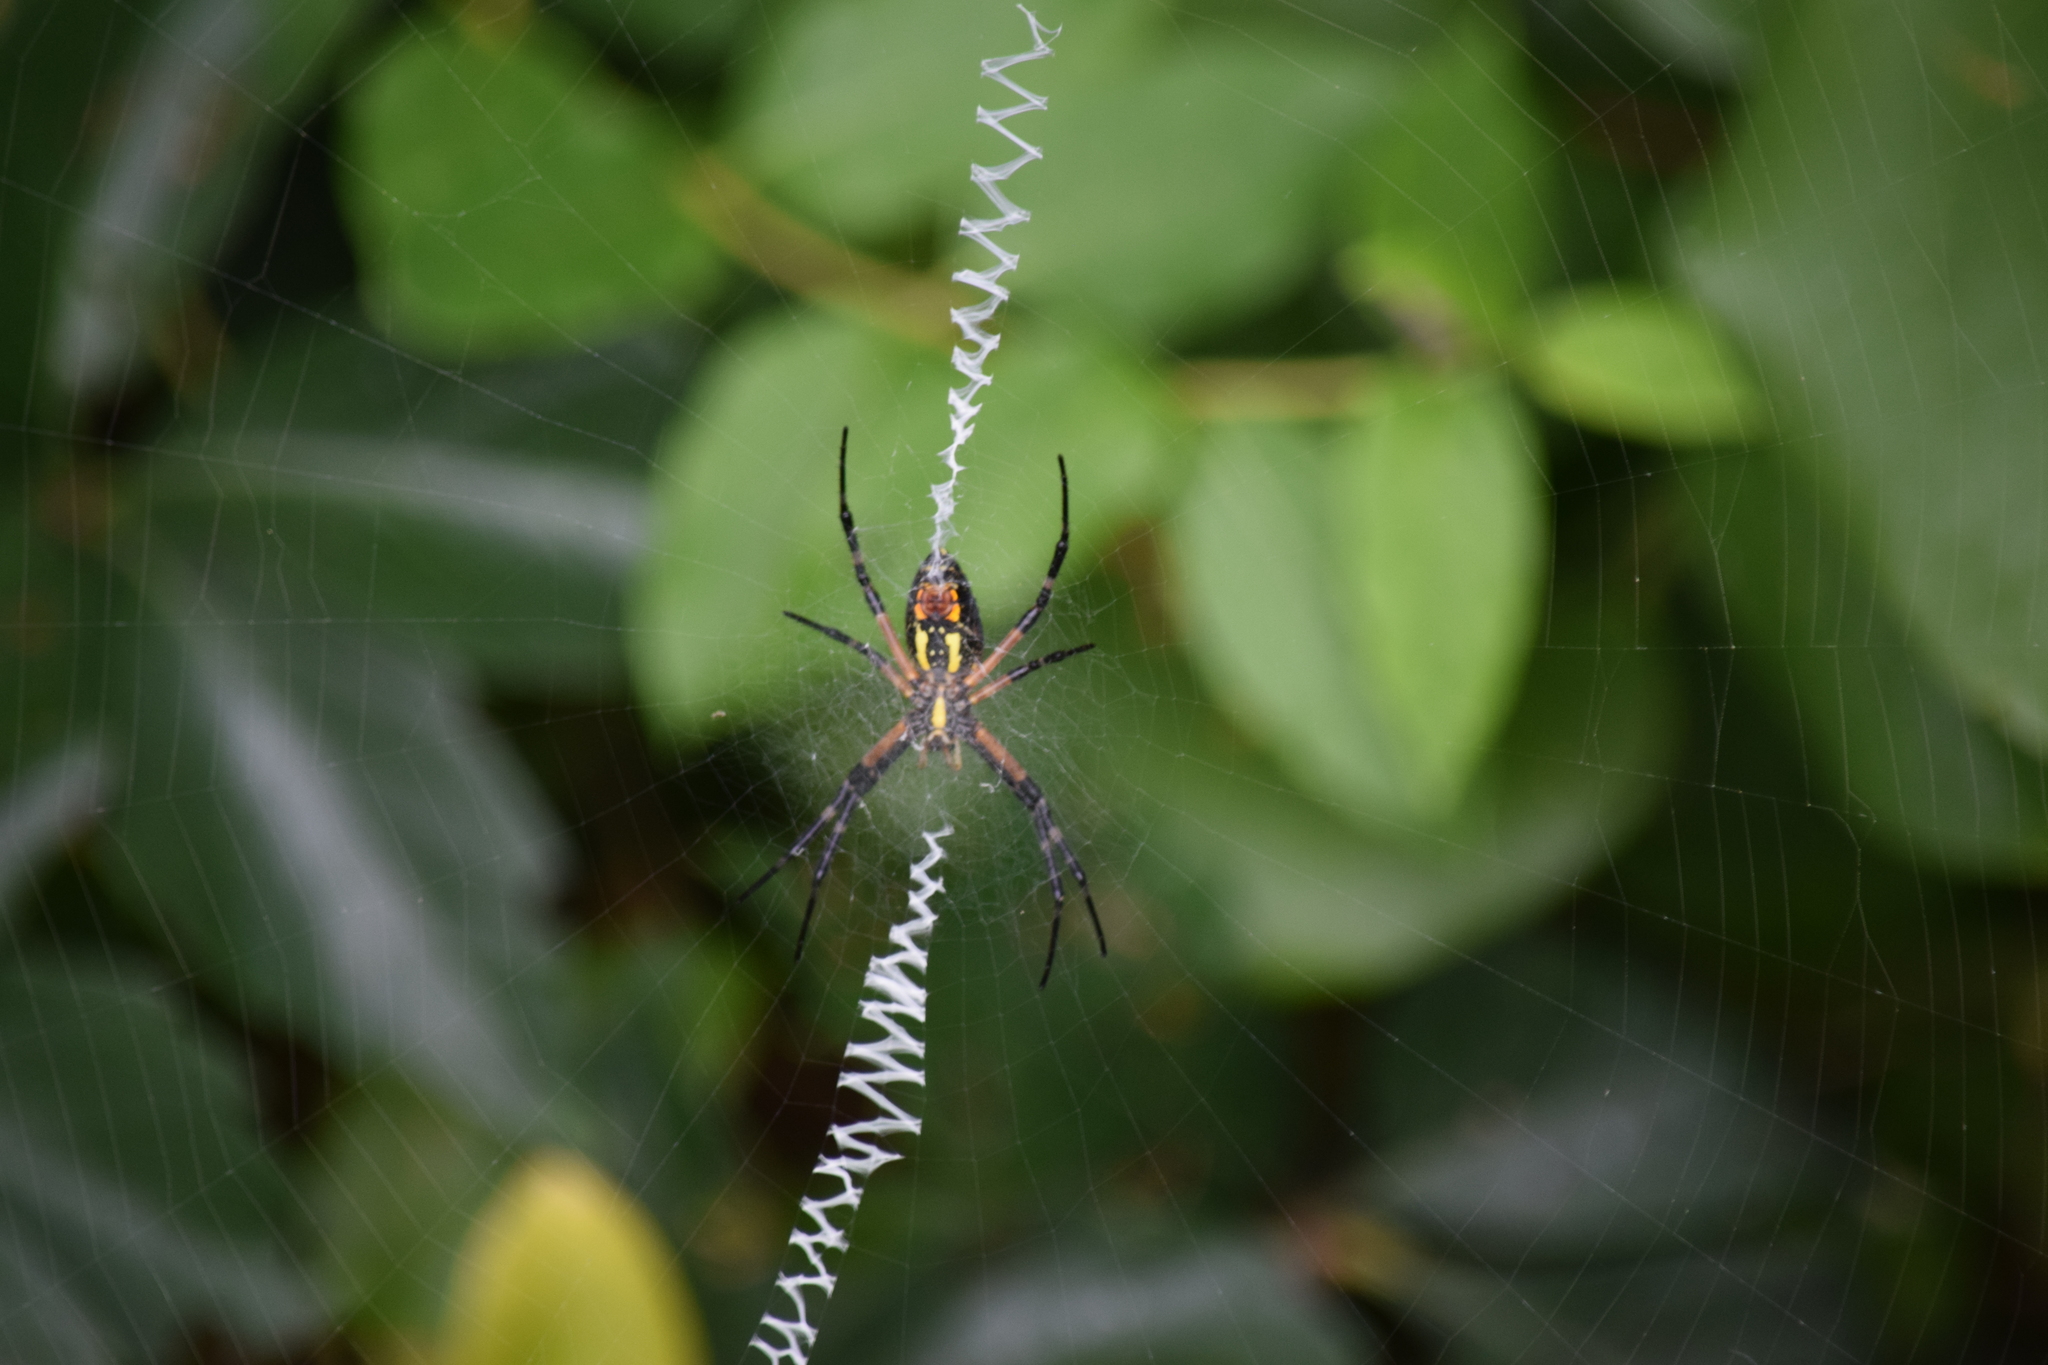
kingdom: Animalia
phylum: Arthropoda
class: Arachnida
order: Araneae
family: Araneidae
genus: Argiope
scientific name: Argiope aurantia
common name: Orb weavers
